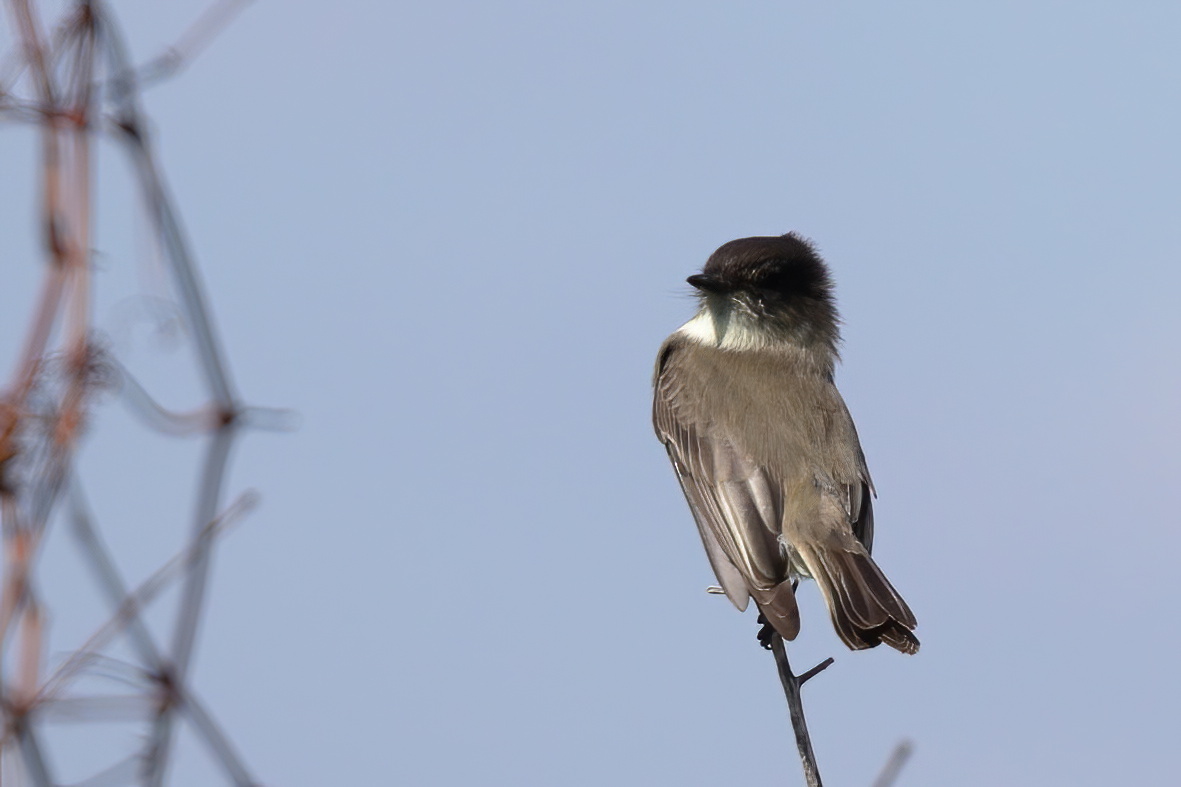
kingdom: Animalia
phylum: Chordata
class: Aves
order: Passeriformes
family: Tyrannidae
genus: Sayornis
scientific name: Sayornis phoebe
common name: Eastern phoebe
